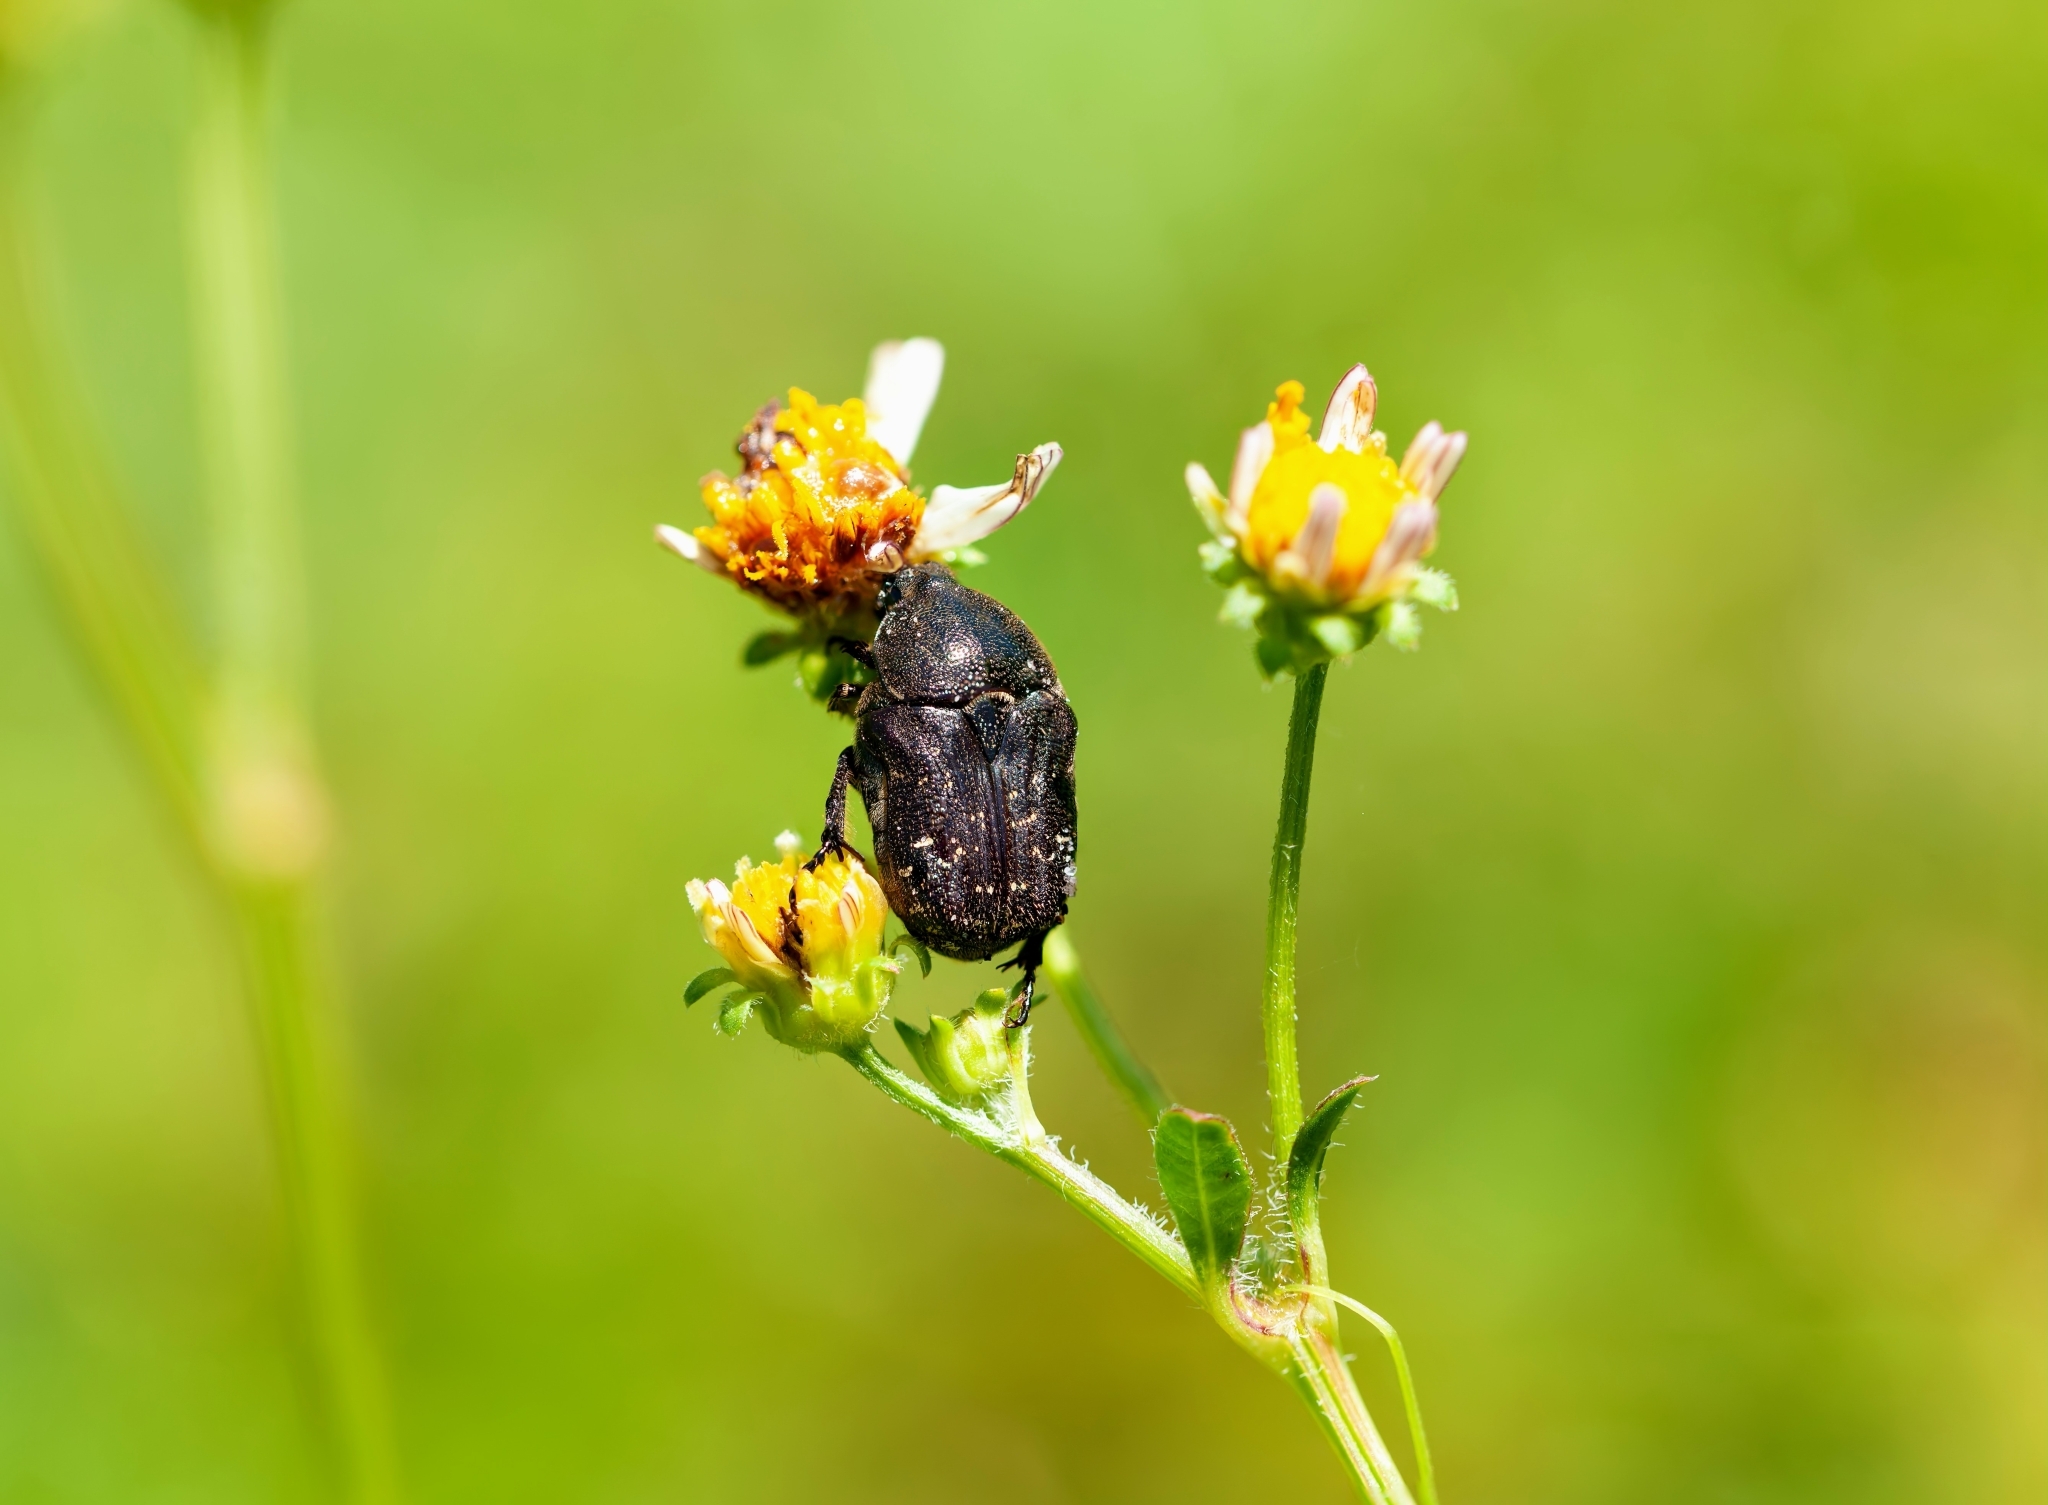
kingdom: Animalia
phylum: Arthropoda
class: Insecta
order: Coleoptera
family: Scarabaeidae
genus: Euphoria
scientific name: Euphoria sepulcralis
